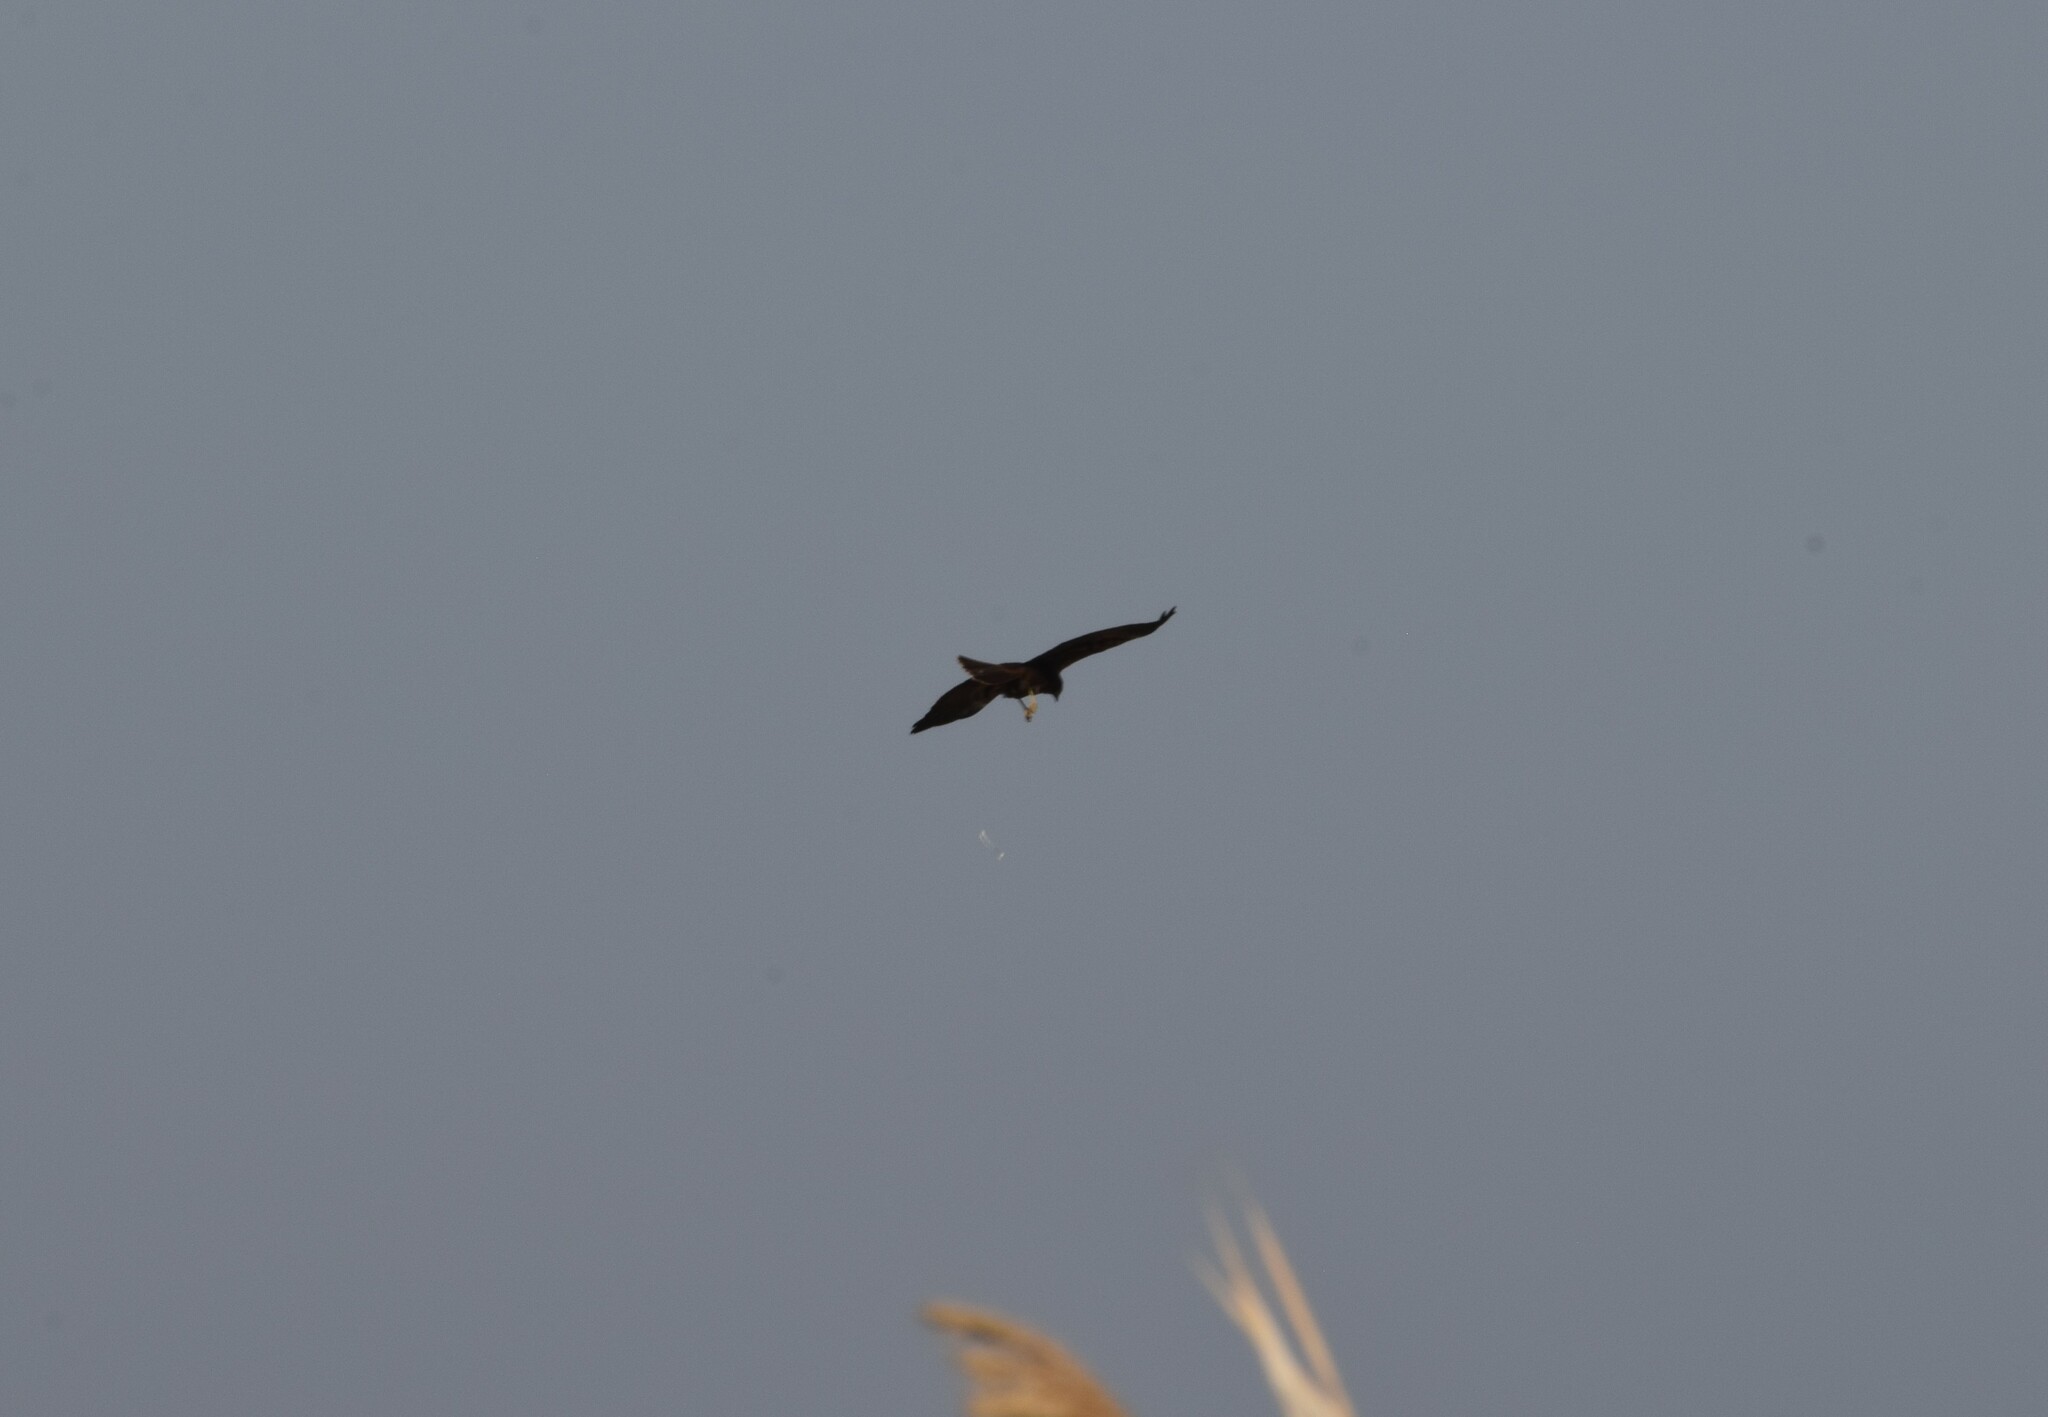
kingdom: Animalia
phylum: Chordata
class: Aves
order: Accipitriformes
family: Accipitridae
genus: Circus
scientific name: Circus aeruginosus
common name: Western marsh harrier
